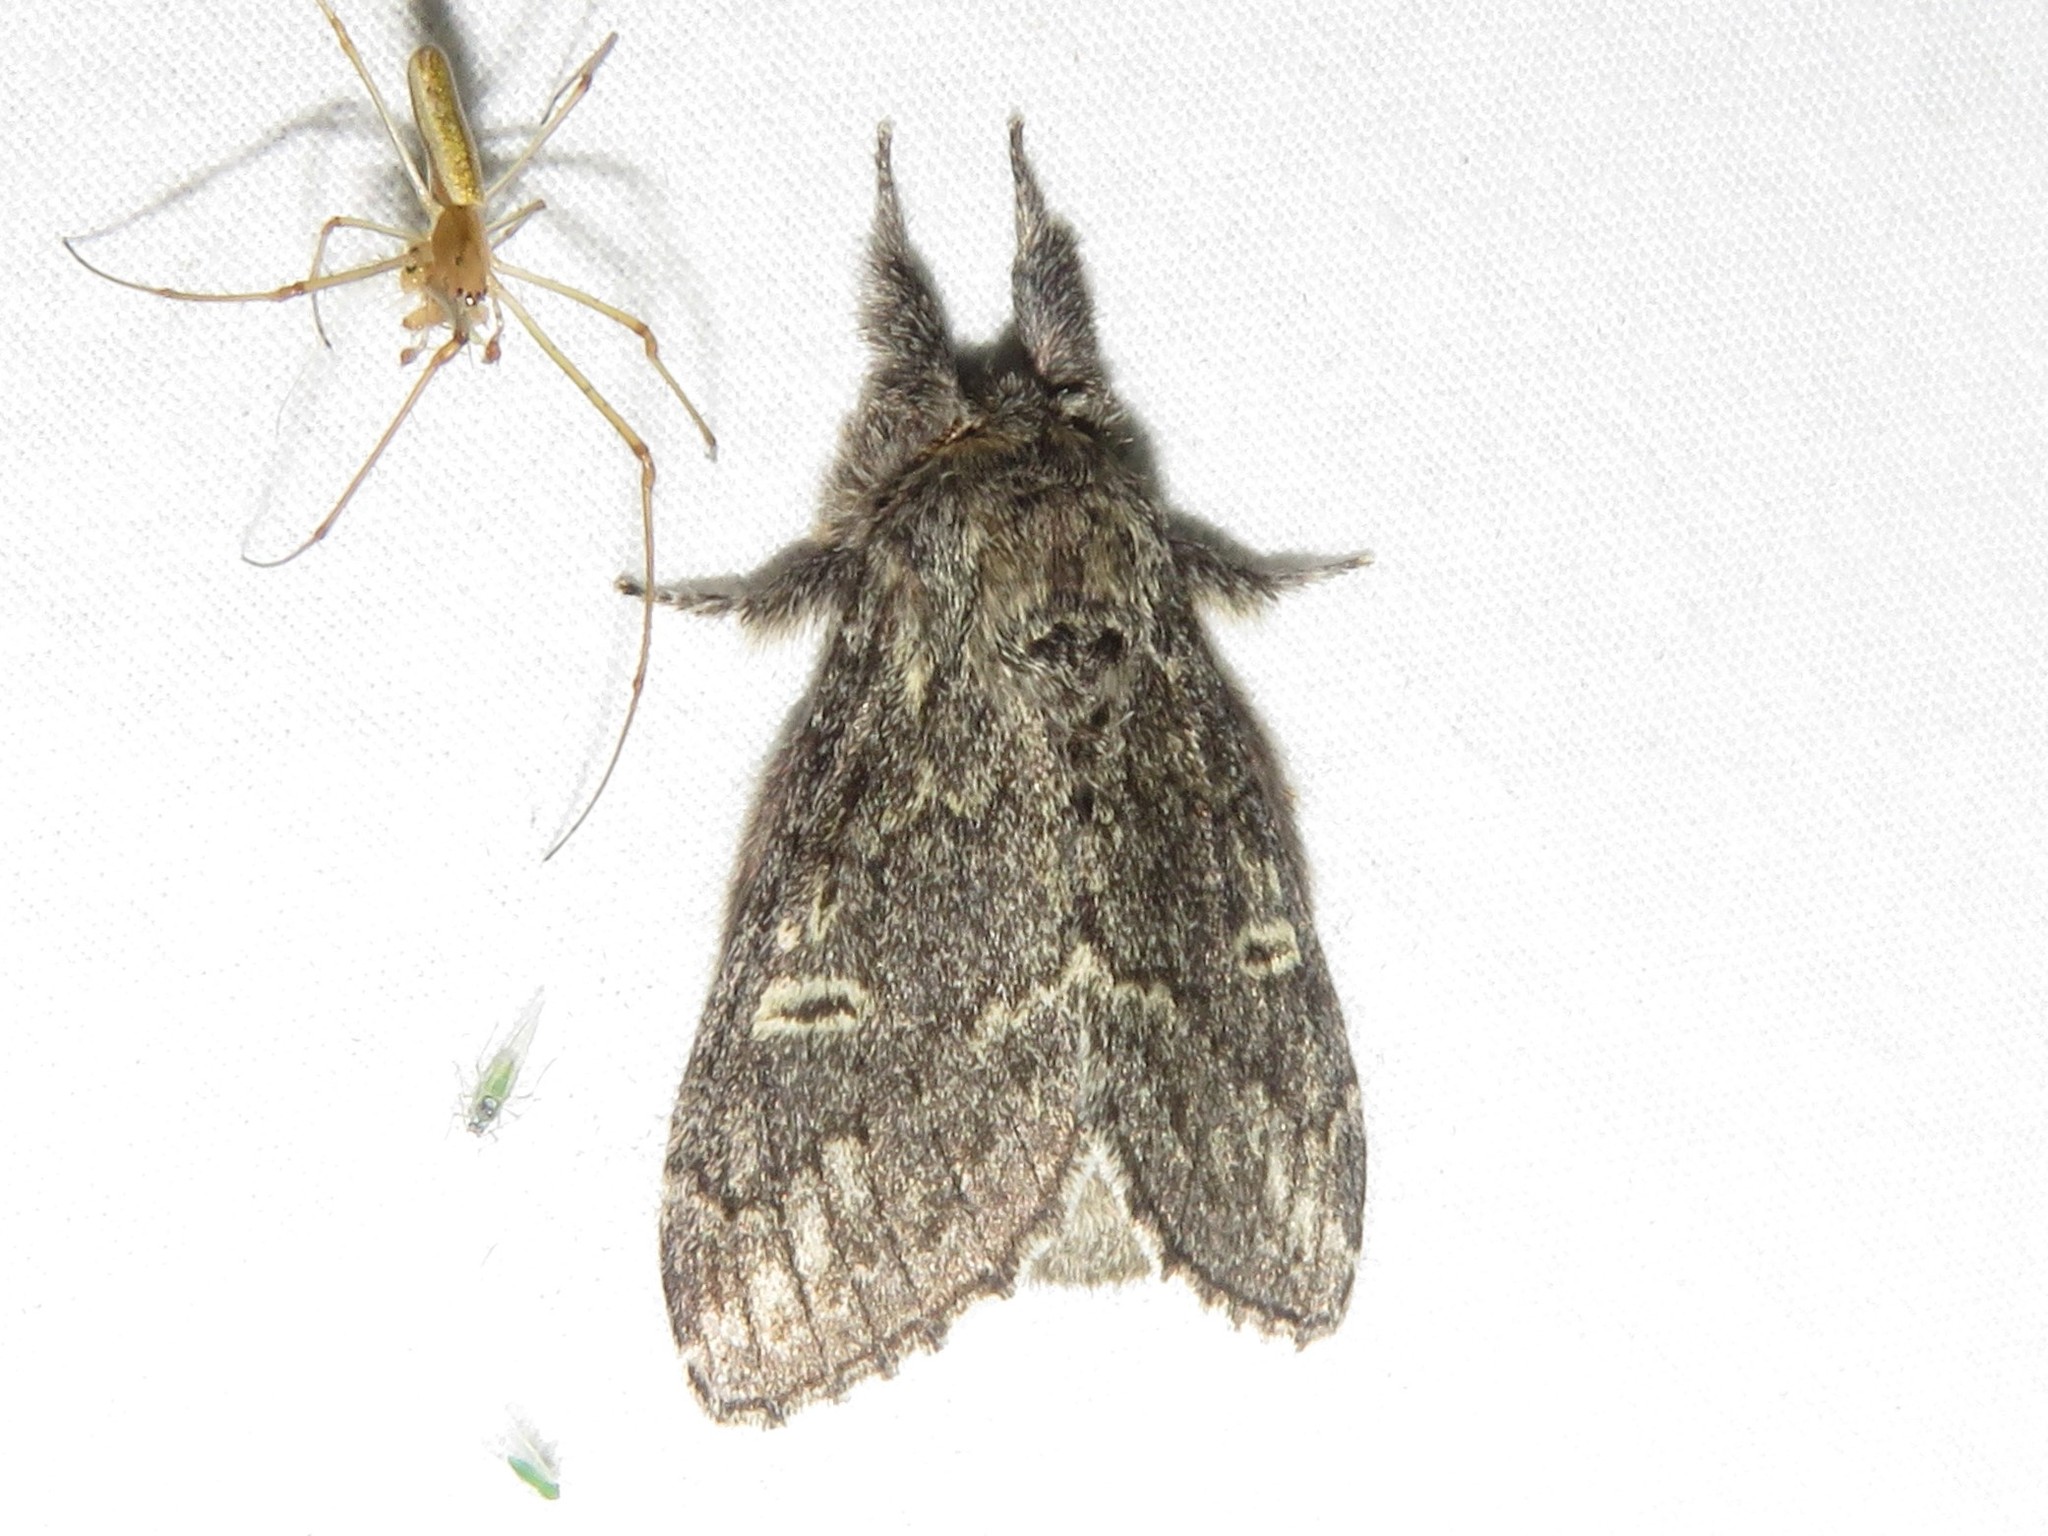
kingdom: Animalia
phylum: Arthropoda
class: Insecta
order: Lepidoptera
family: Notodontidae
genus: Notodonta
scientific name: Notodonta torva
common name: Large dark prominent
